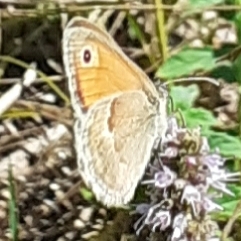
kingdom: Animalia
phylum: Arthropoda
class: Insecta
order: Lepidoptera
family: Nymphalidae
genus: Coenonympha
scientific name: Coenonympha pamphilus
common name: Small heath
